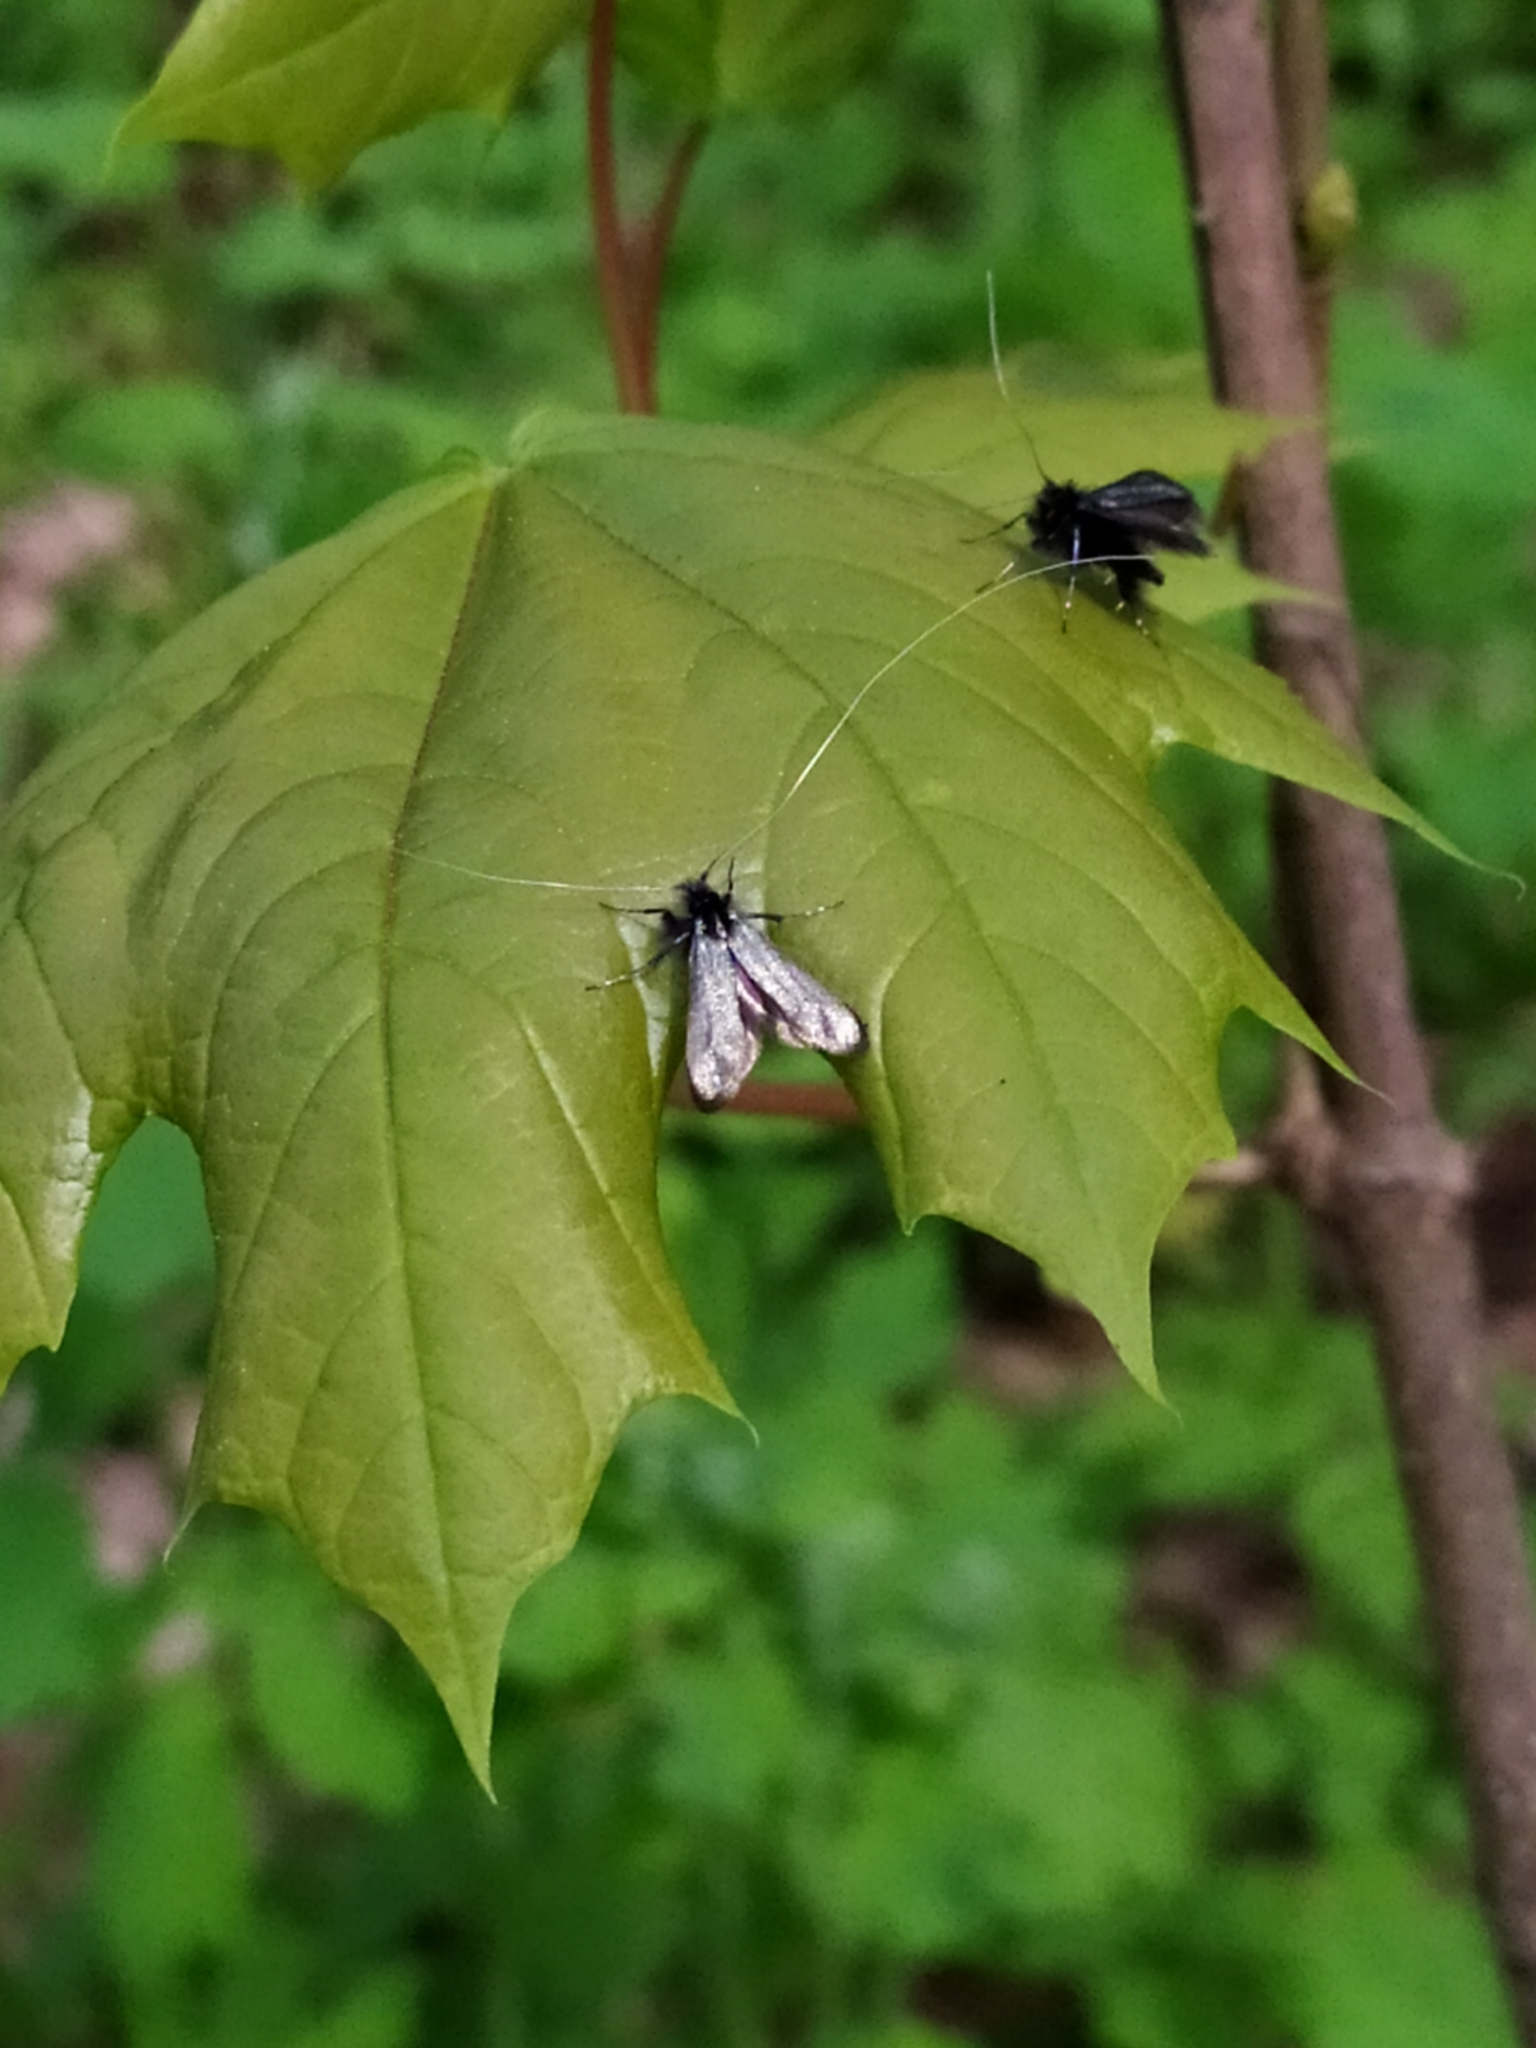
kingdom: Animalia
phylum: Arthropoda
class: Insecta
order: Lepidoptera
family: Adelidae
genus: Adela
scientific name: Adela viridella
